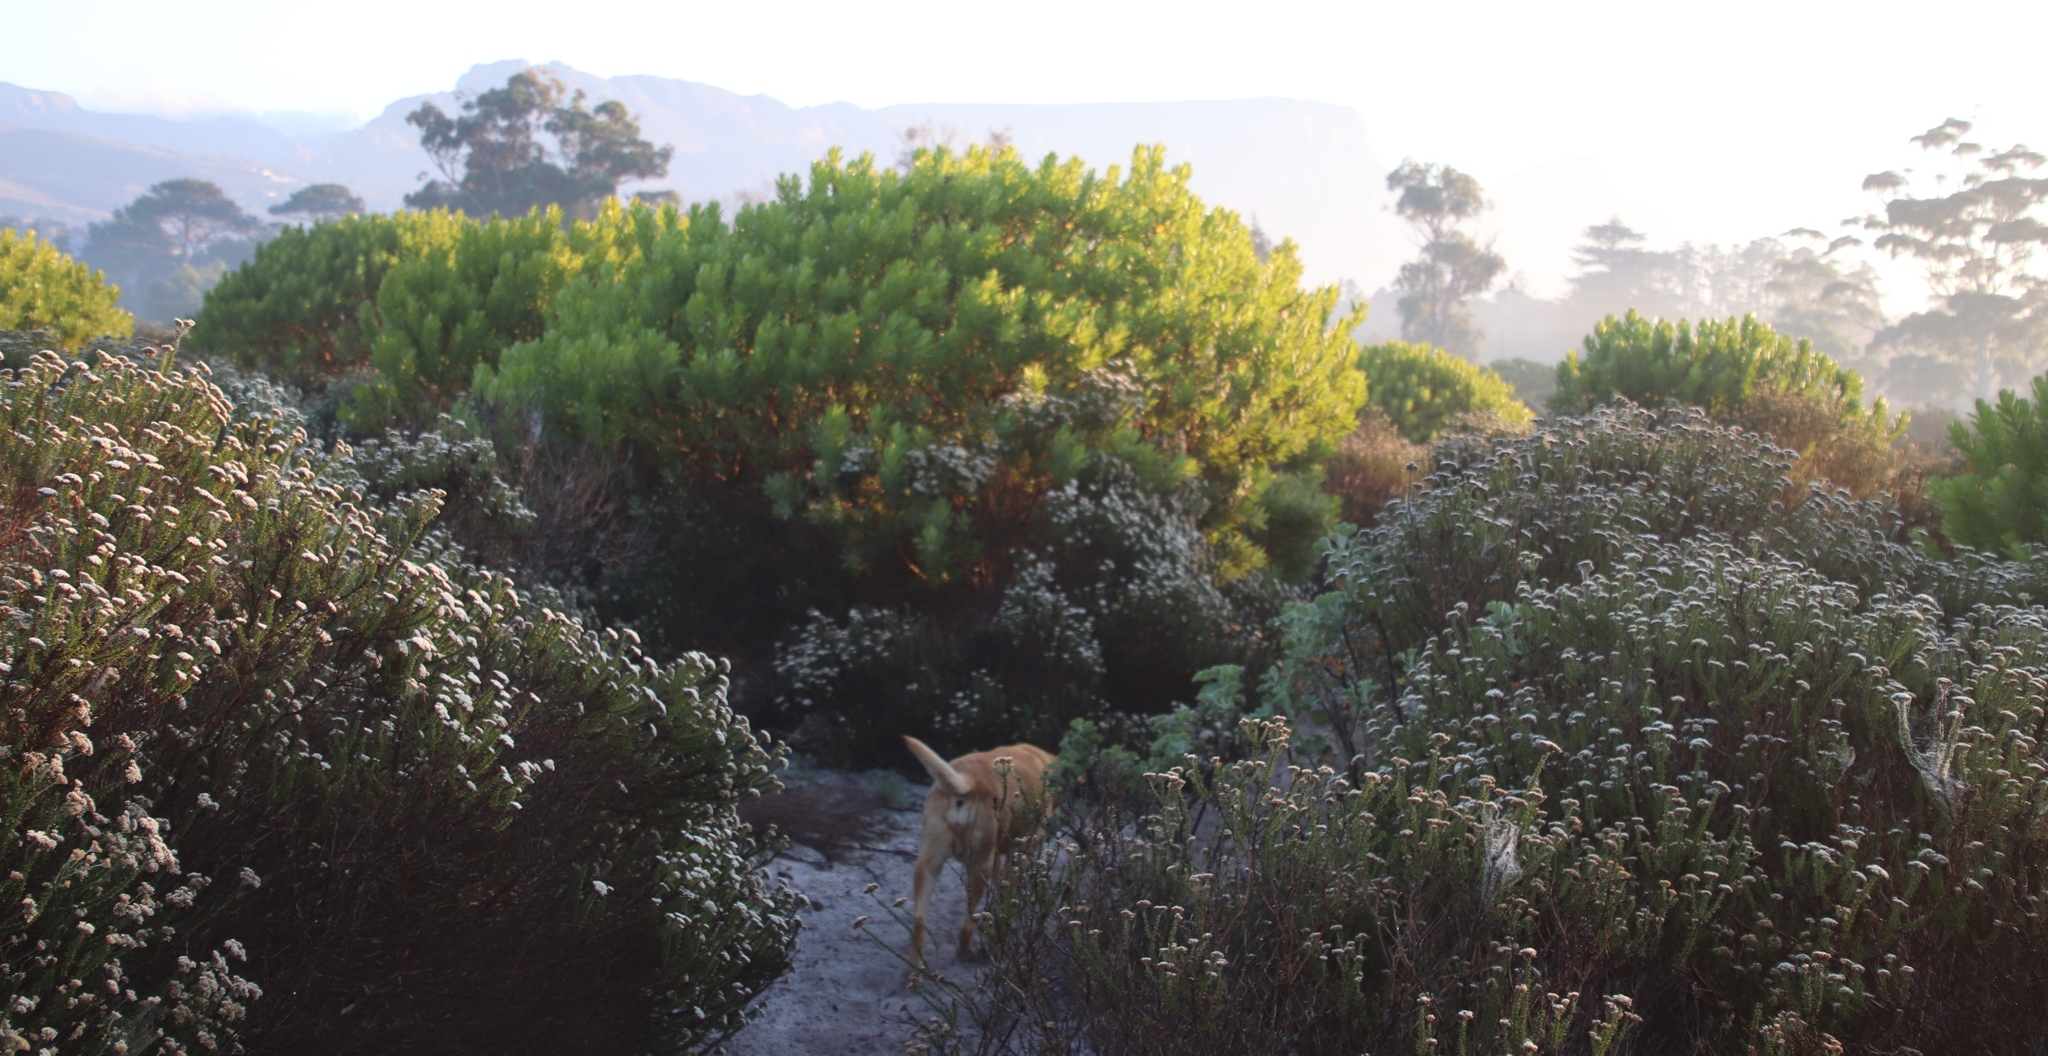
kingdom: Plantae
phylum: Tracheophyta
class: Magnoliopsida
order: Proteales
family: Proteaceae
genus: Leucadendron
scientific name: Leucadendron laureolum
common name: Golden sunshinebush
